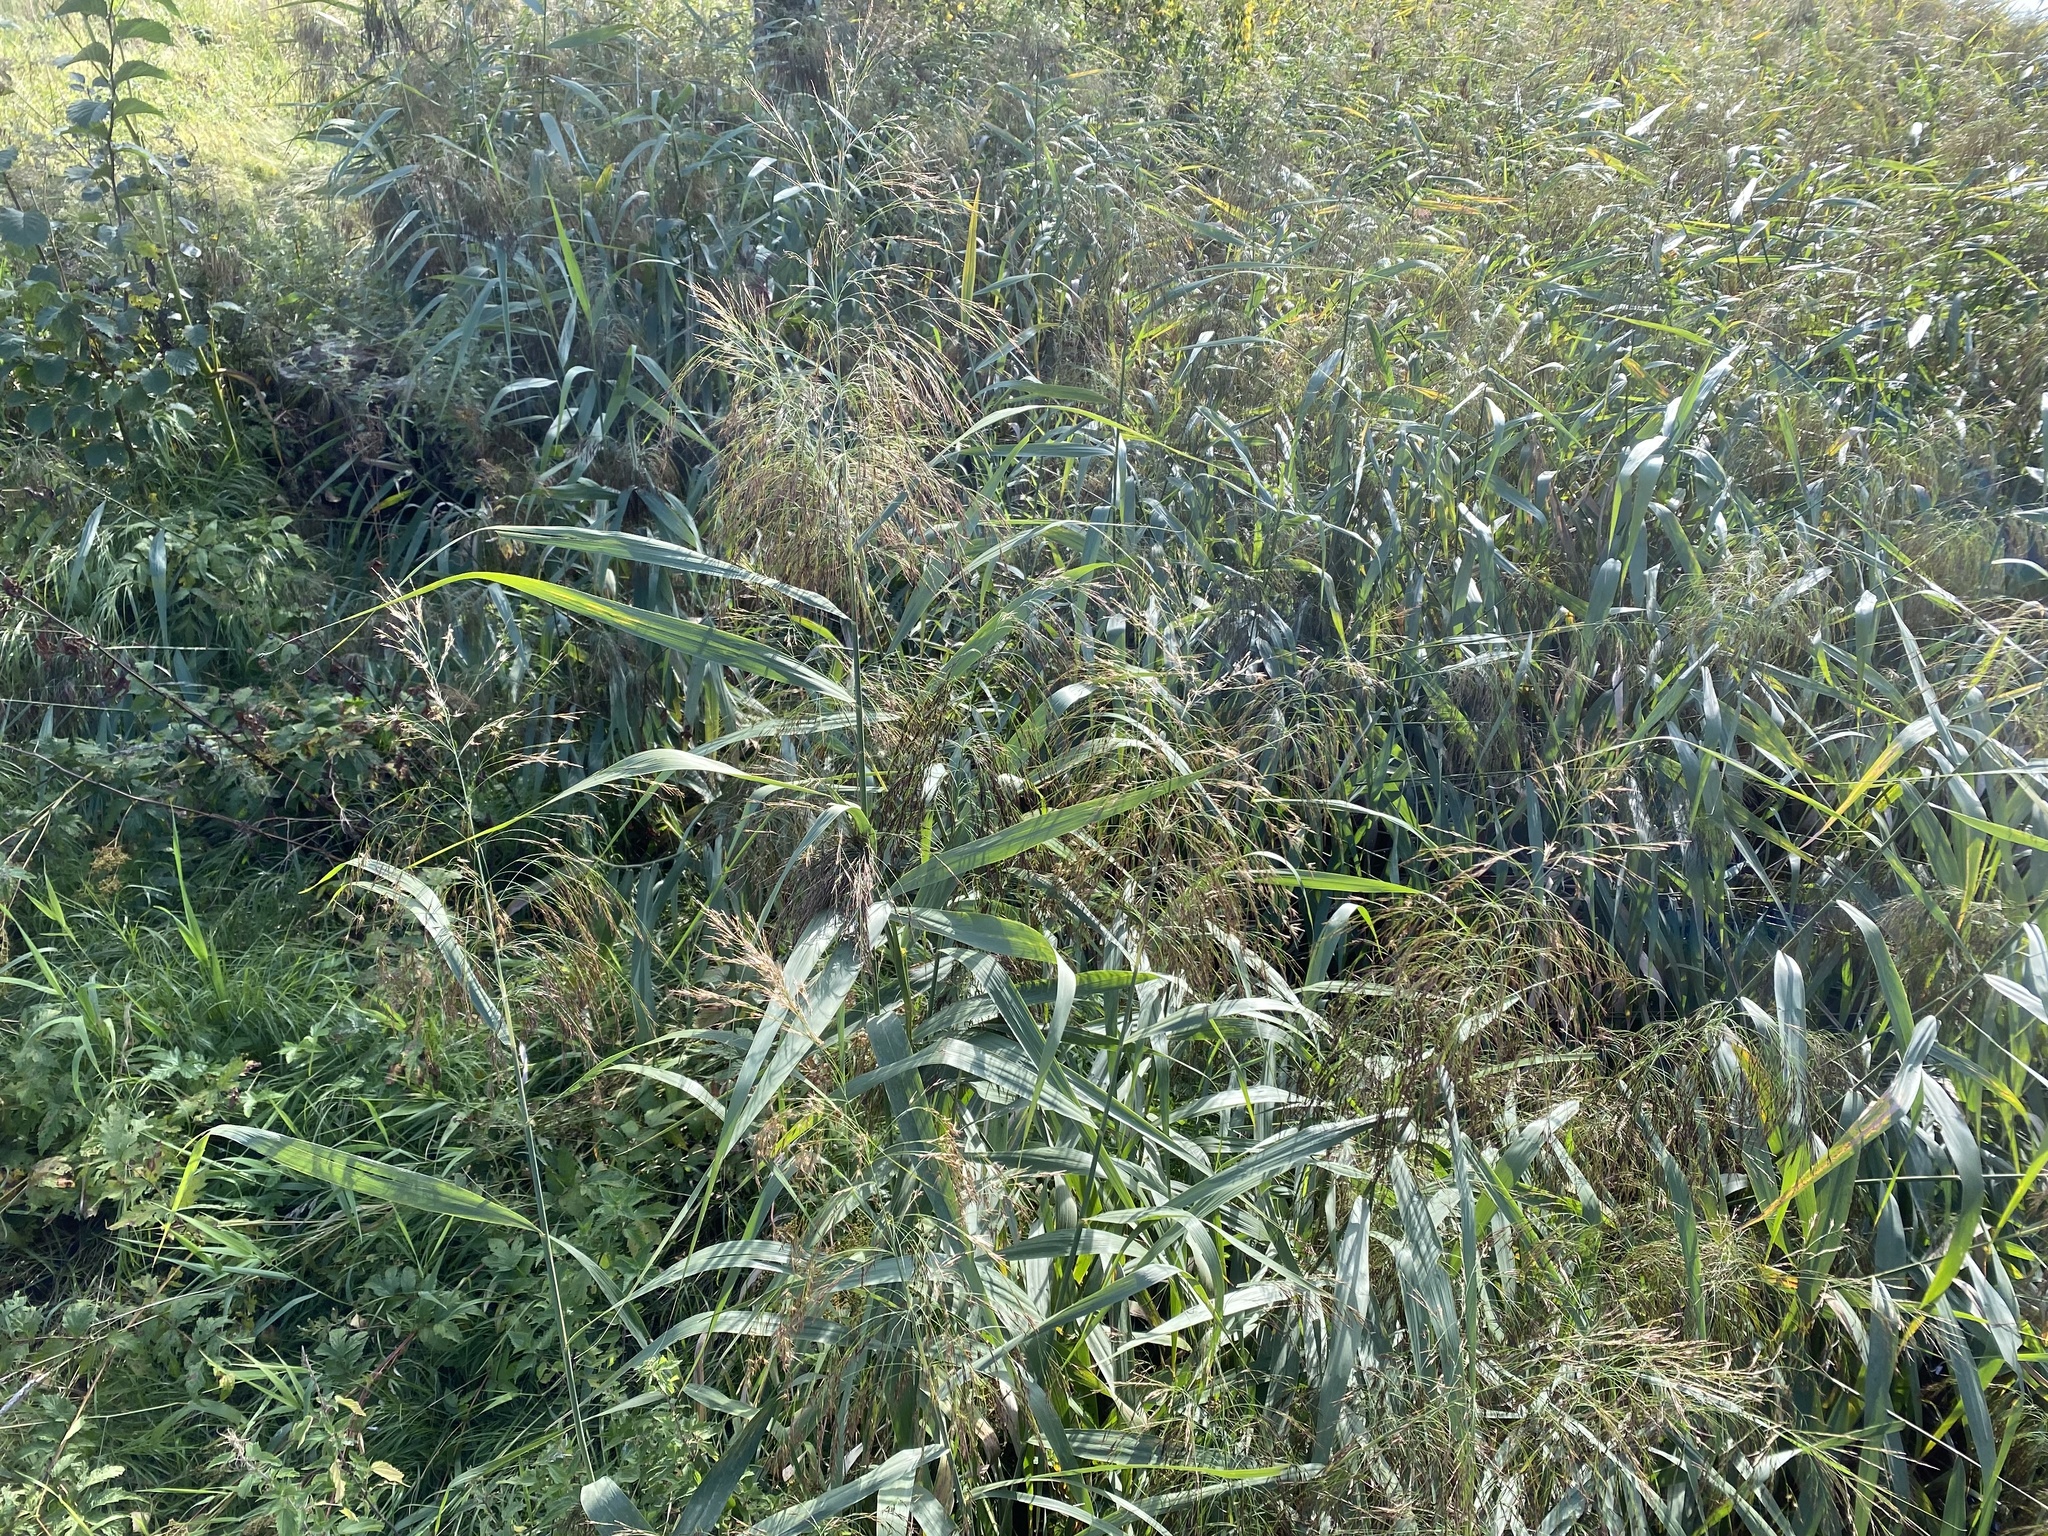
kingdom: Plantae
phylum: Tracheophyta
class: Liliopsida
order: Poales
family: Poaceae
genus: Phragmites
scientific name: Phragmites australis
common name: Common reed
